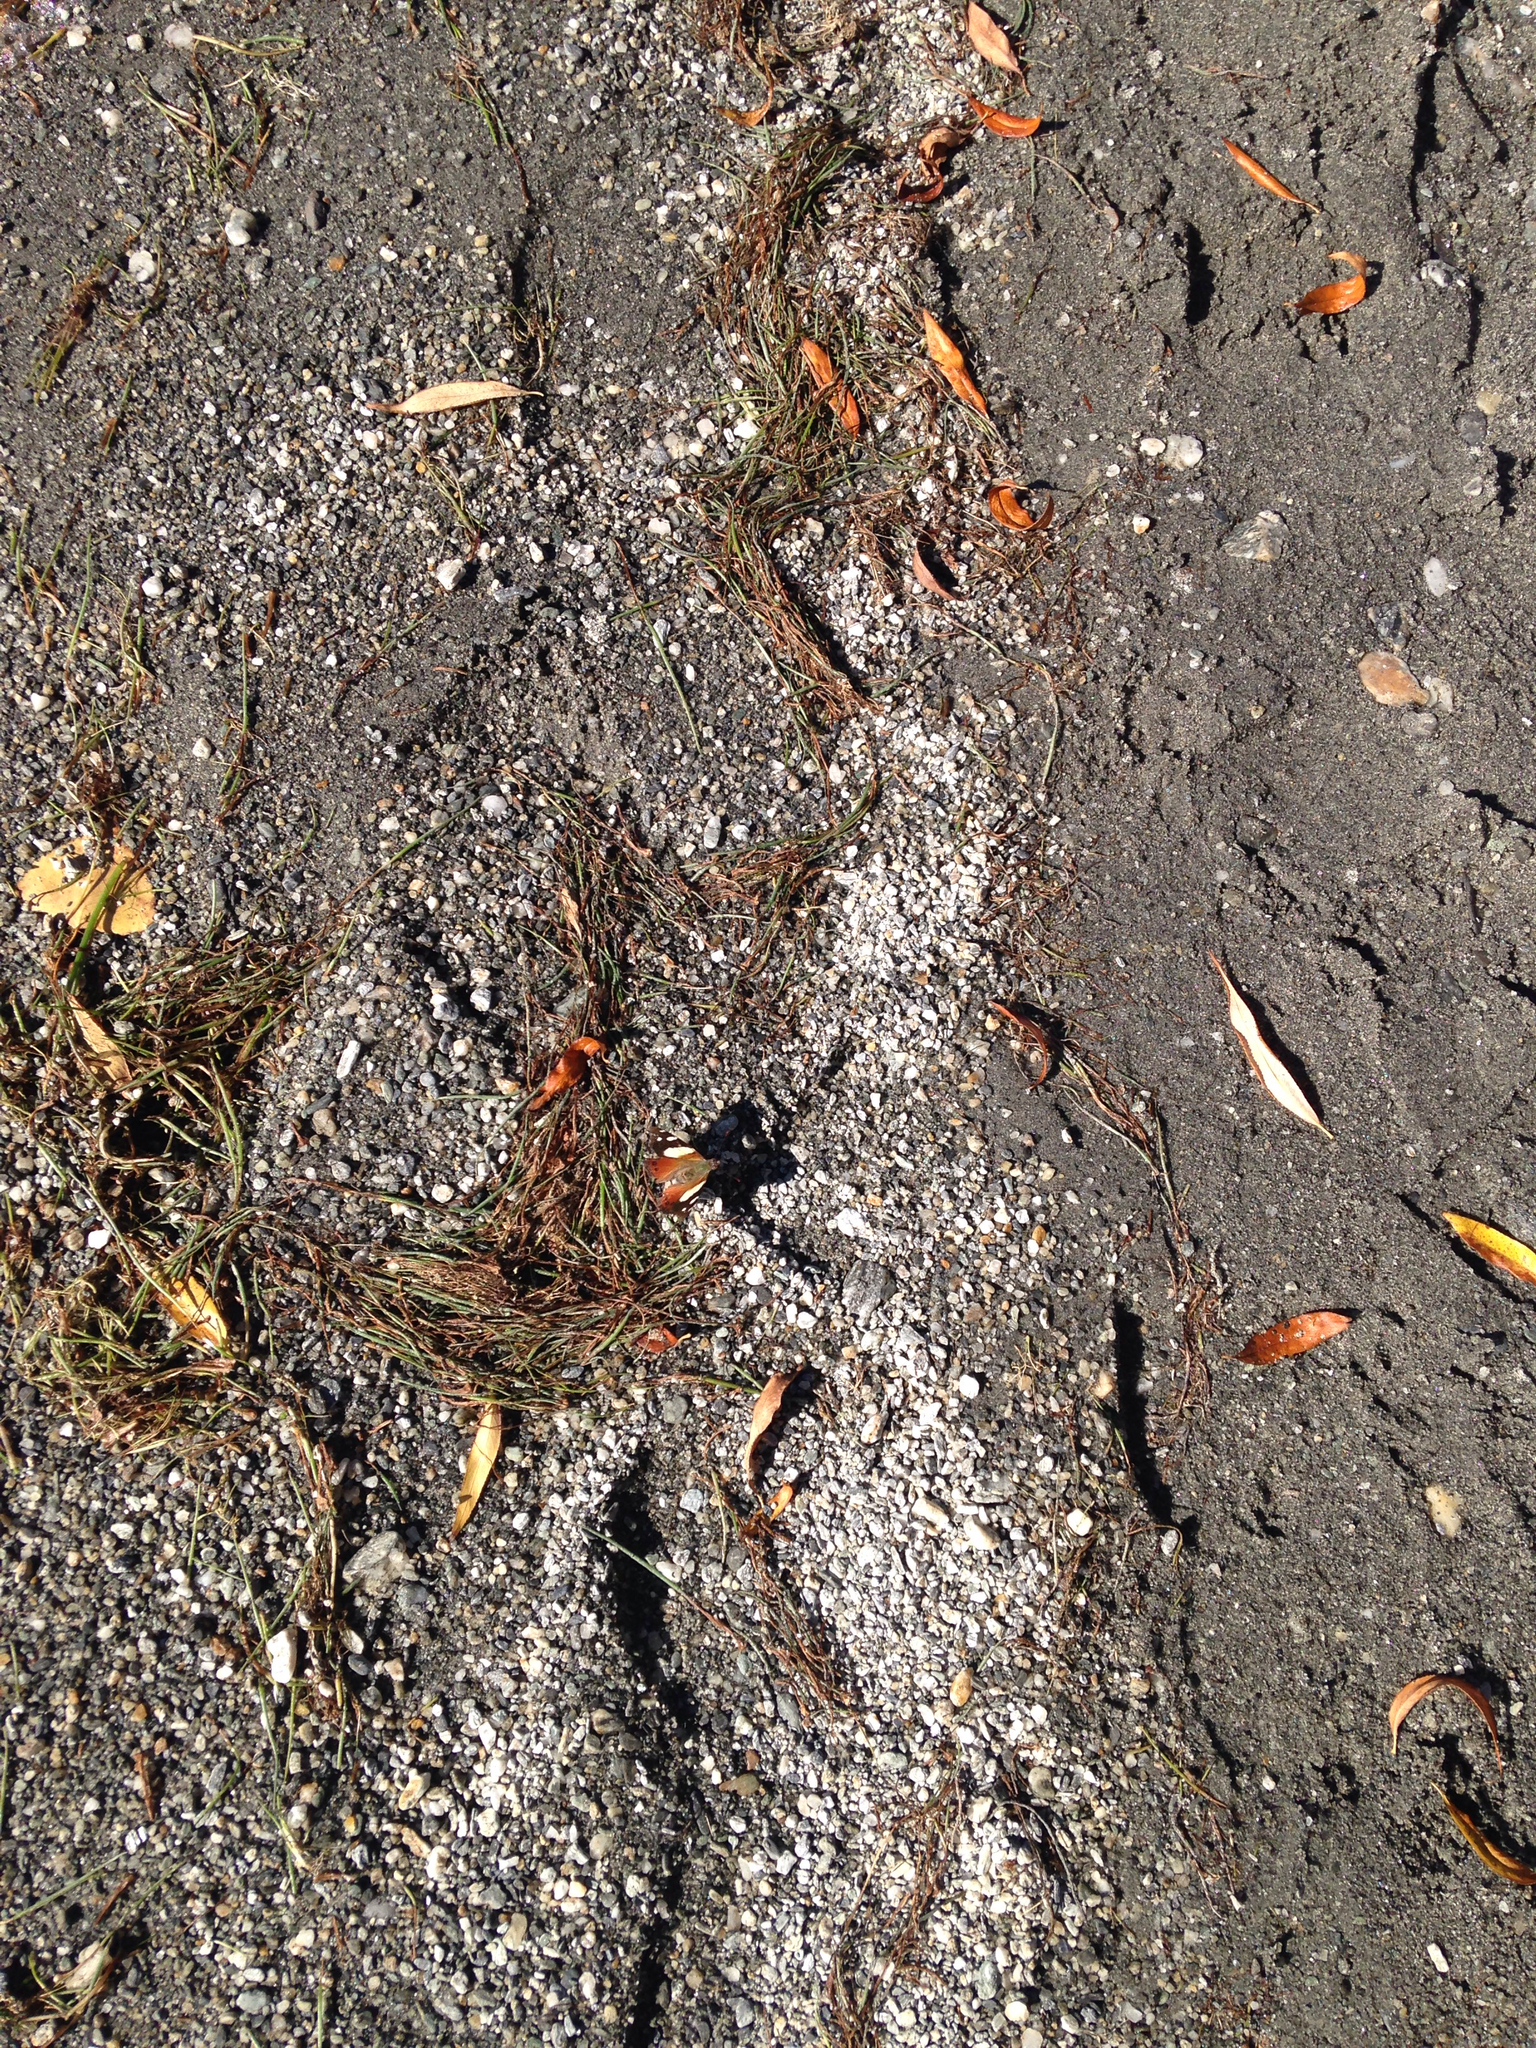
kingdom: Animalia
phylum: Arthropoda
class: Insecta
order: Lepidoptera
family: Nymphalidae
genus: Vanessa
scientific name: Vanessa itea
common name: Yellow admiral
